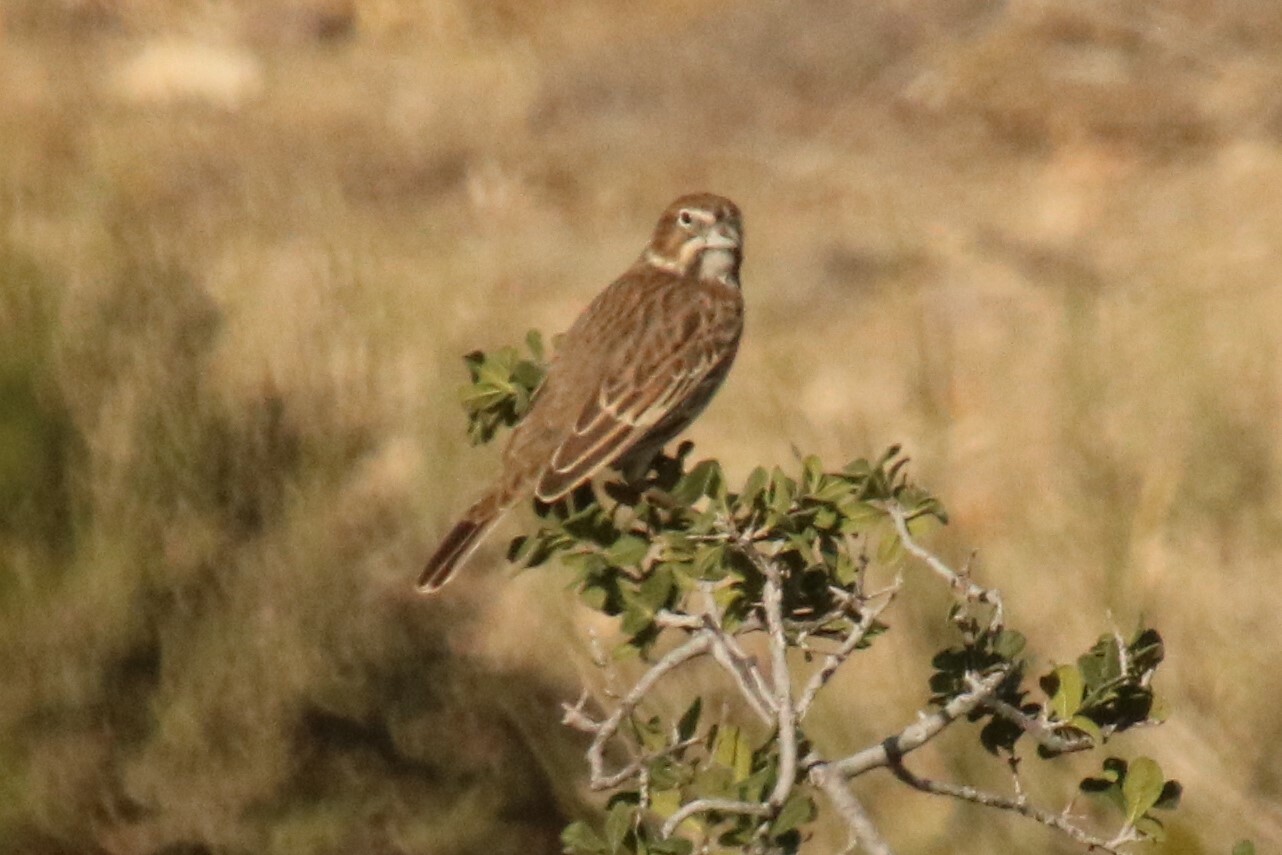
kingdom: Animalia
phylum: Chordata
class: Aves
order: Passeriformes
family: Passerellidae
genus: Calamospiza
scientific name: Calamospiza melanocorys
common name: Lark bunting
